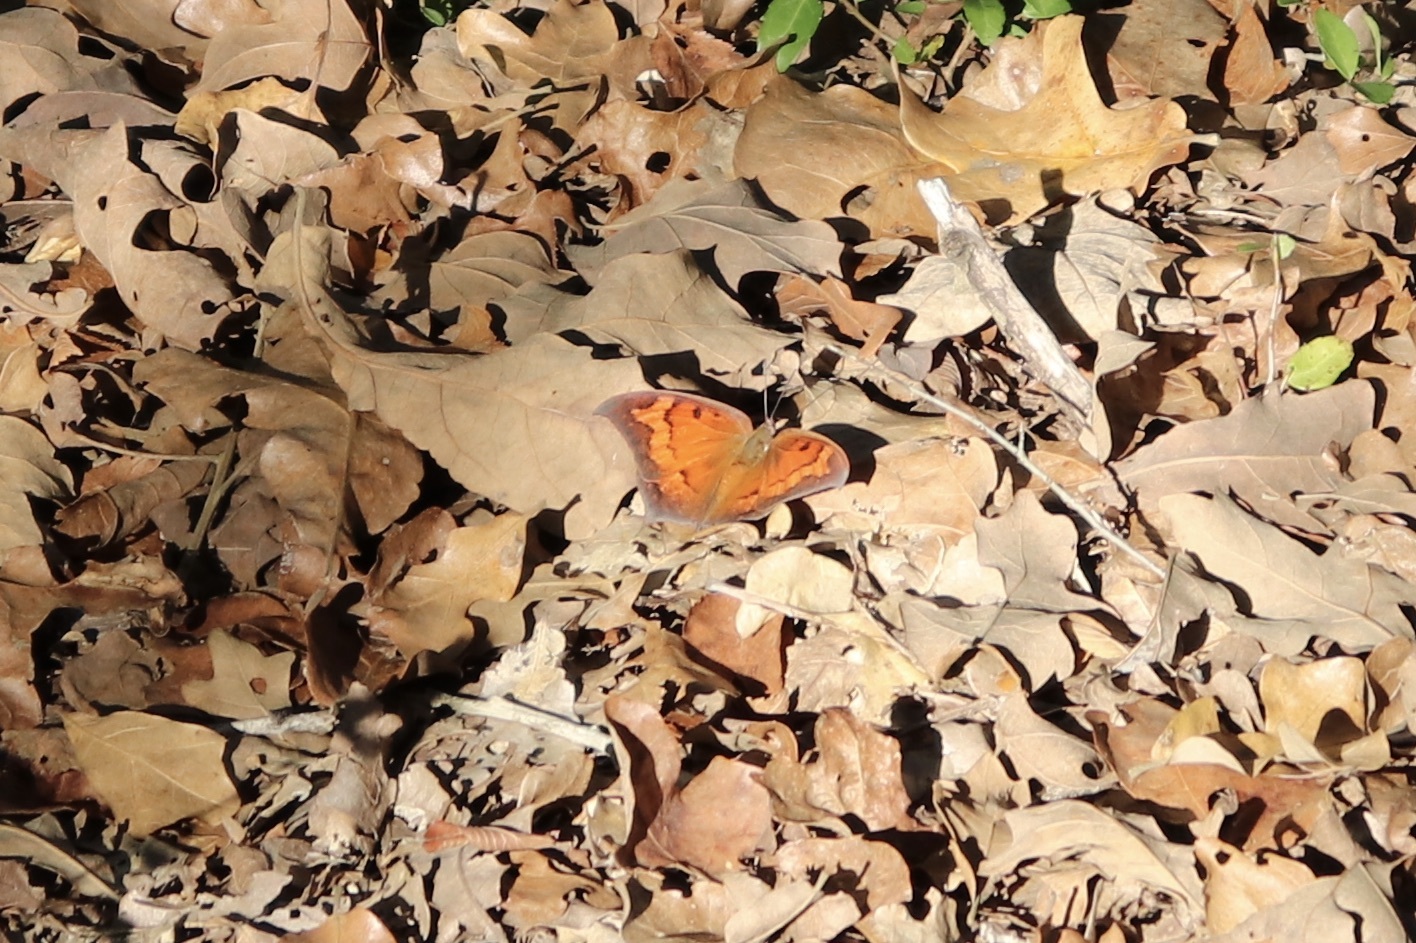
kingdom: Animalia
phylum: Arthropoda
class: Insecta
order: Lepidoptera
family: Nymphalidae
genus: Anaea
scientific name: Anaea andria
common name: Goatweed leafwing
